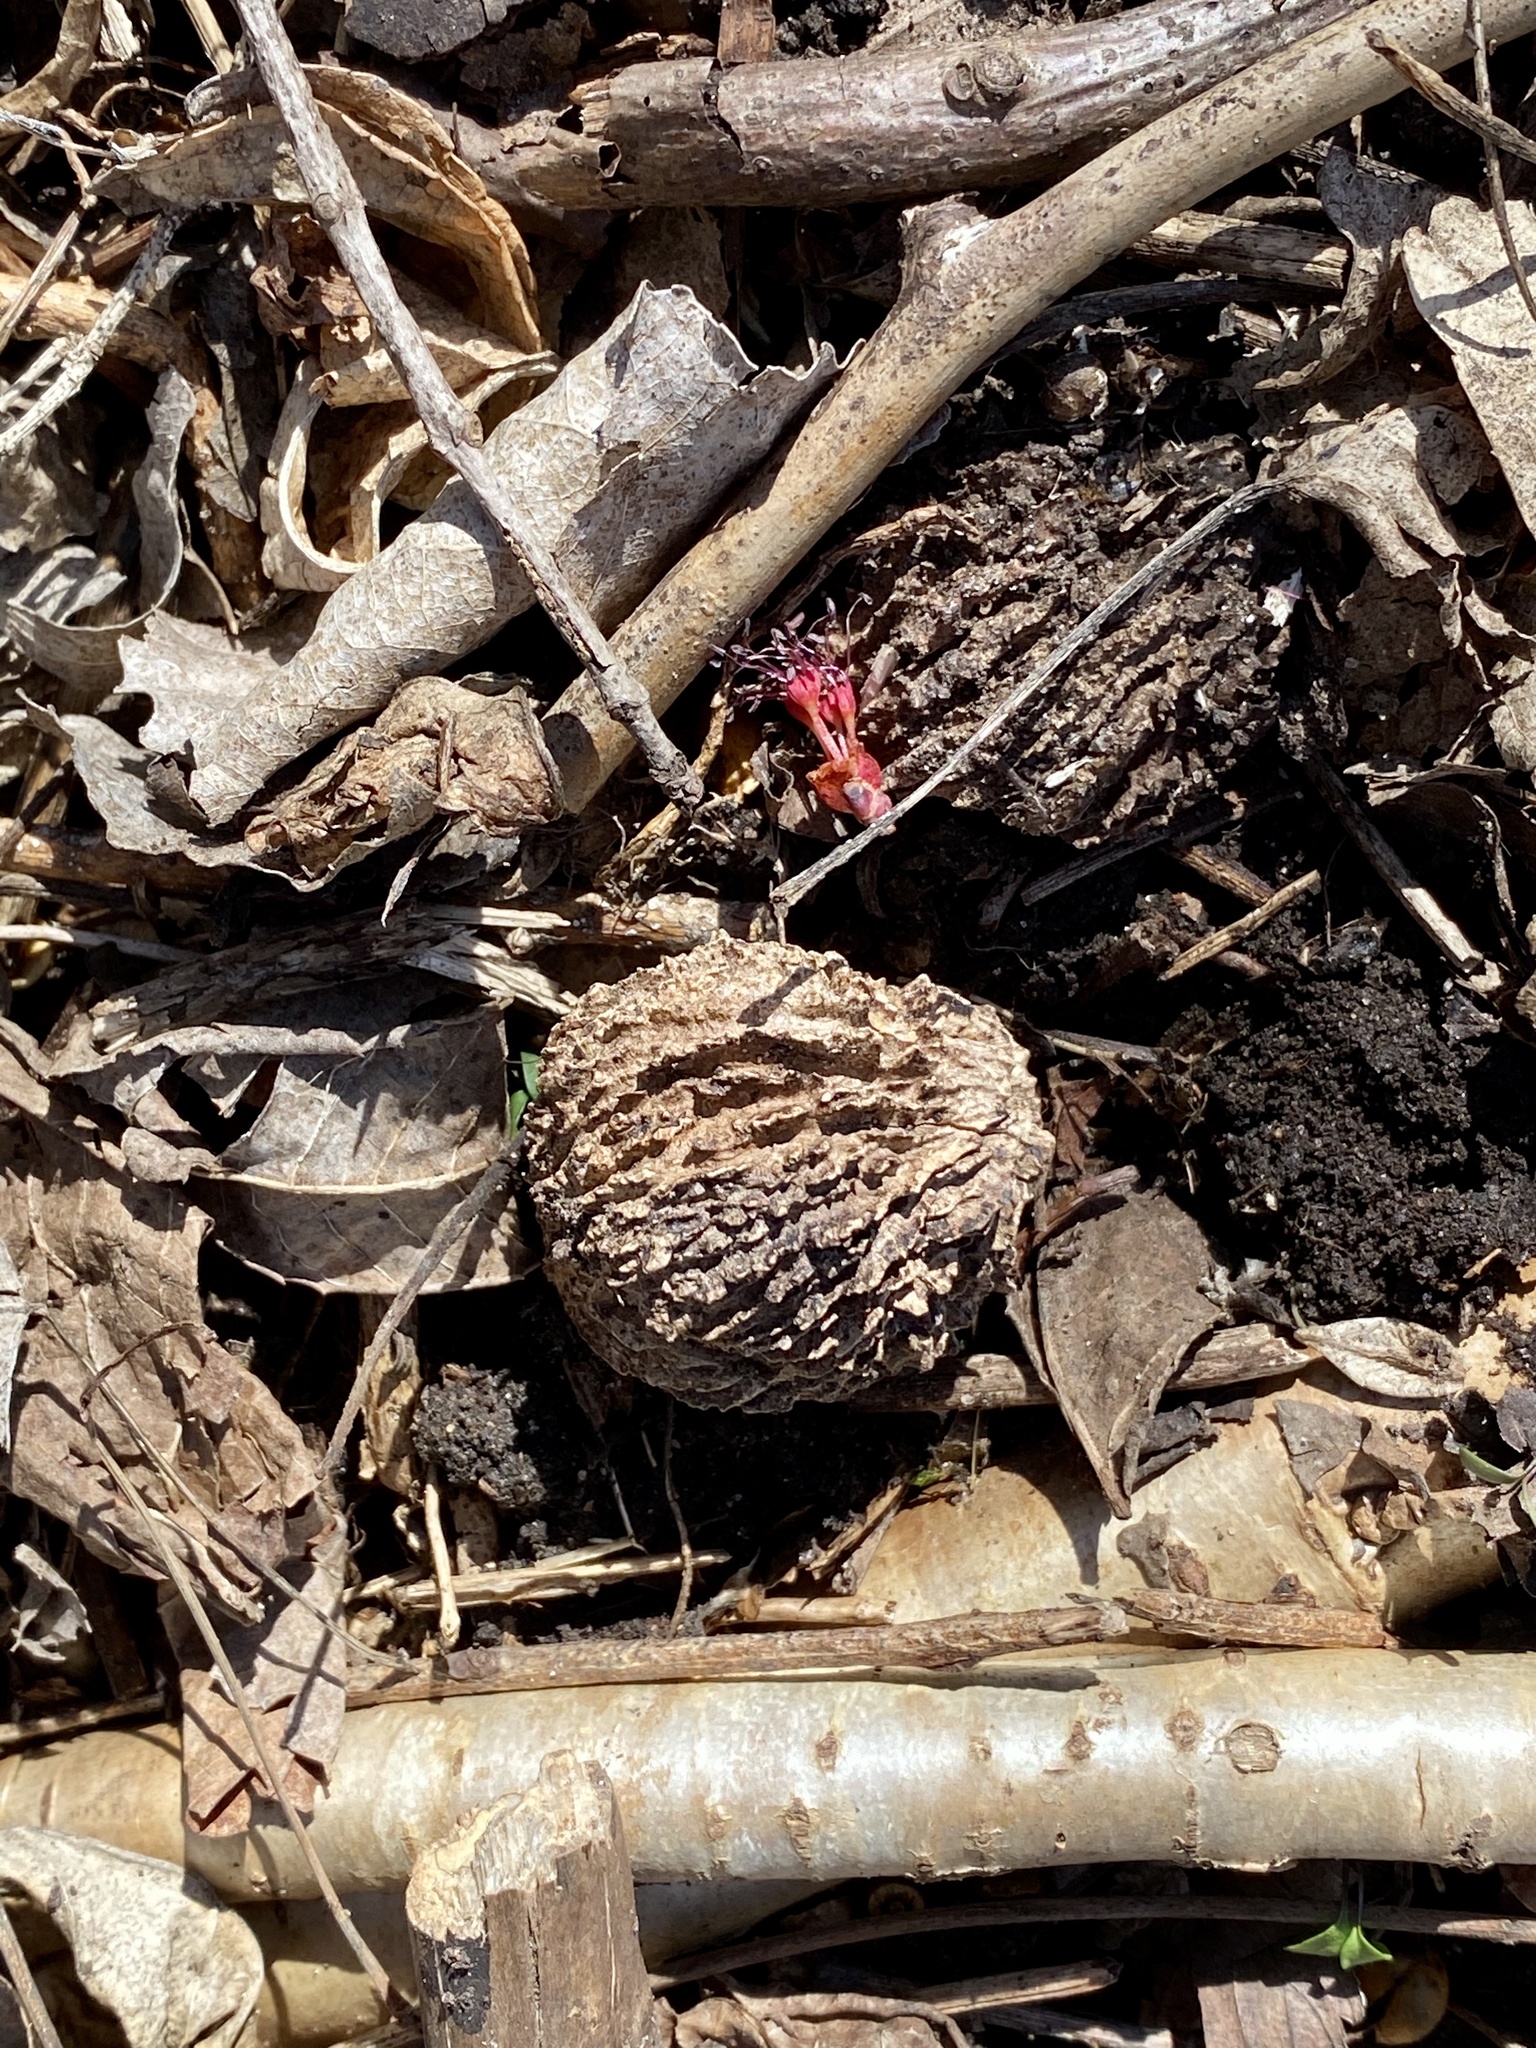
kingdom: Plantae
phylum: Tracheophyta
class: Magnoliopsida
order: Fagales
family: Juglandaceae
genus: Juglans
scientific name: Juglans nigra
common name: Black walnut
